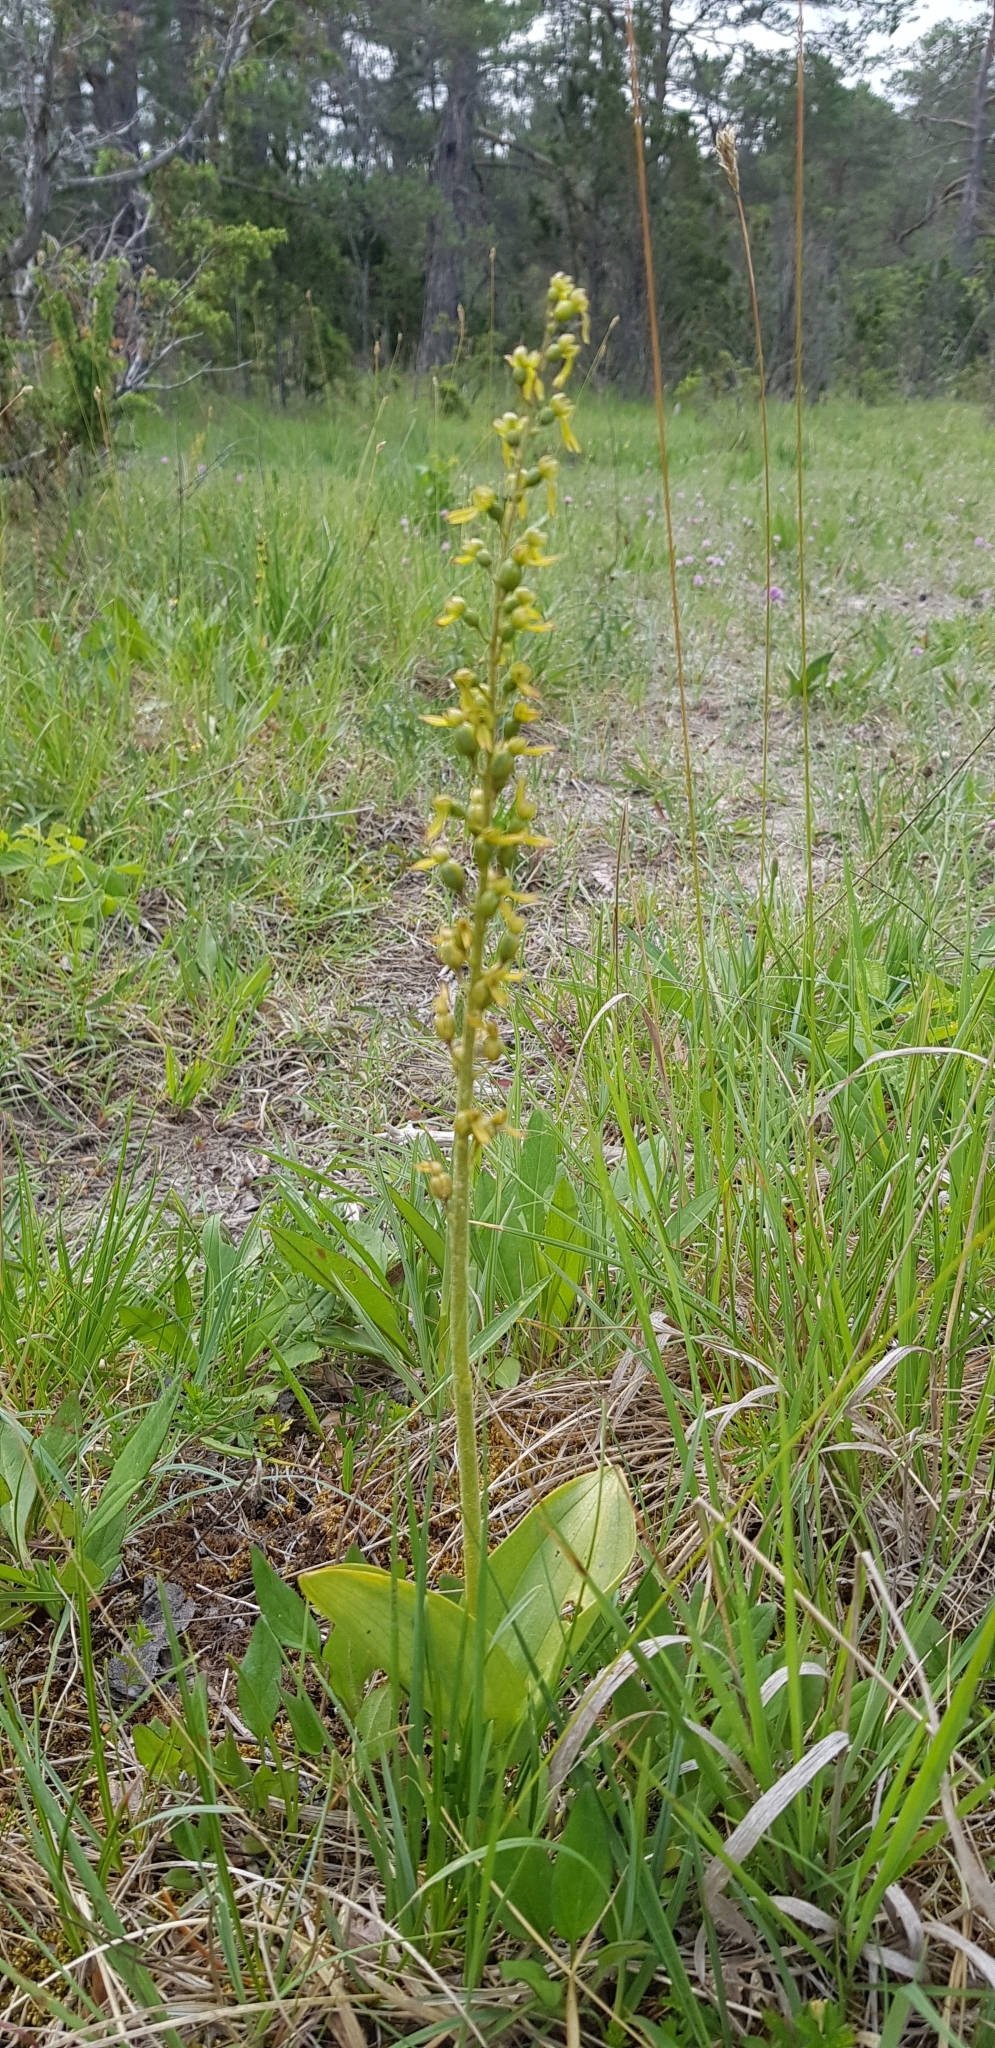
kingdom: Plantae
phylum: Tracheophyta
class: Liliopsida
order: Asparagales
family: Orchidaceae
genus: Neottia
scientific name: Neottia ovata
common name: Common twayblade
